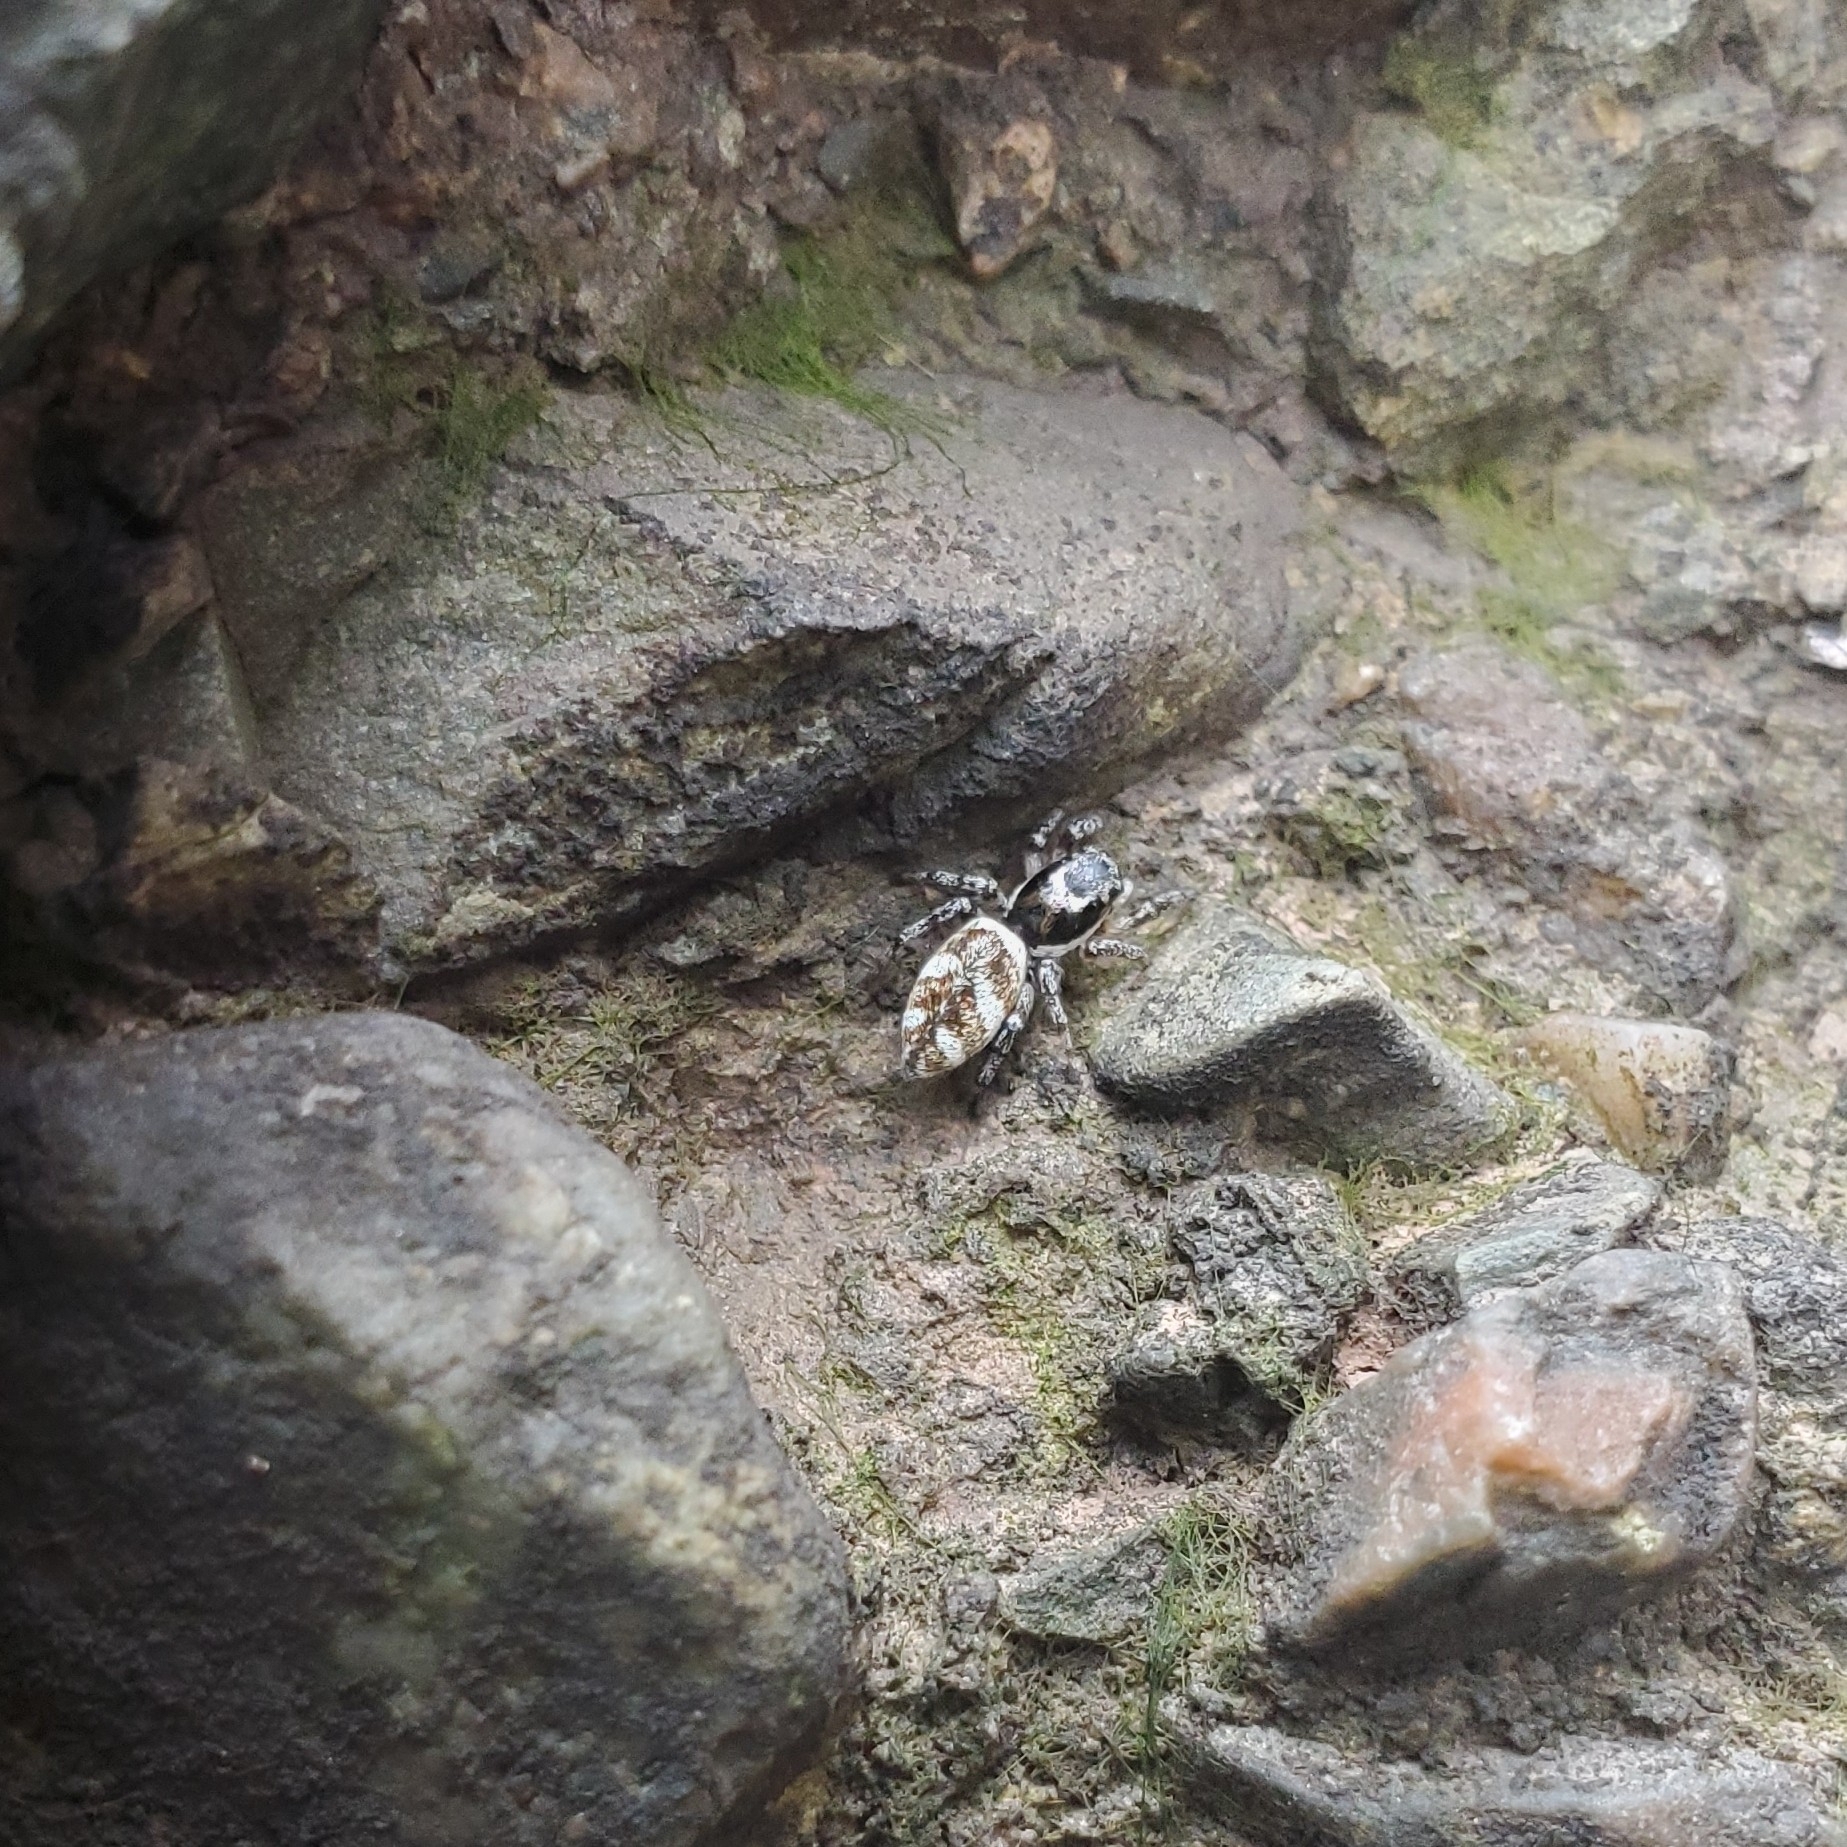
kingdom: Animalia
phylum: Arthropoda
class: Arachnida
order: Araneae
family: Salticidae
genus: Salticus
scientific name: Salticus scenicus
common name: Zebra jumper
